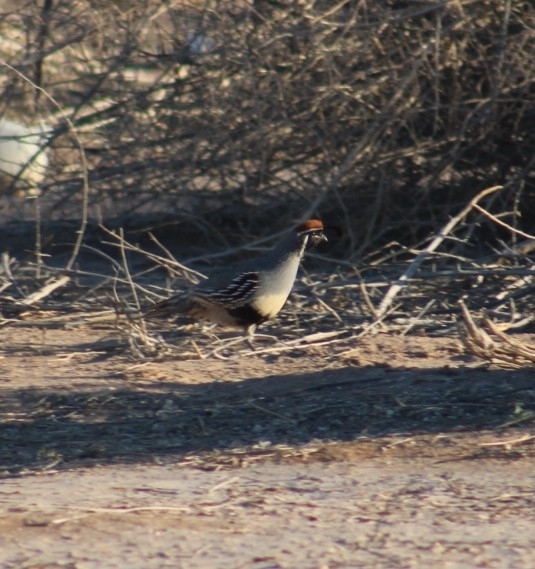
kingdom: Animalia
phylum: Chordata
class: Aves
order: Galliformes
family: Odontophoridae
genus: Callipepla
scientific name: Callipepla gambelii
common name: Gambel's quail
